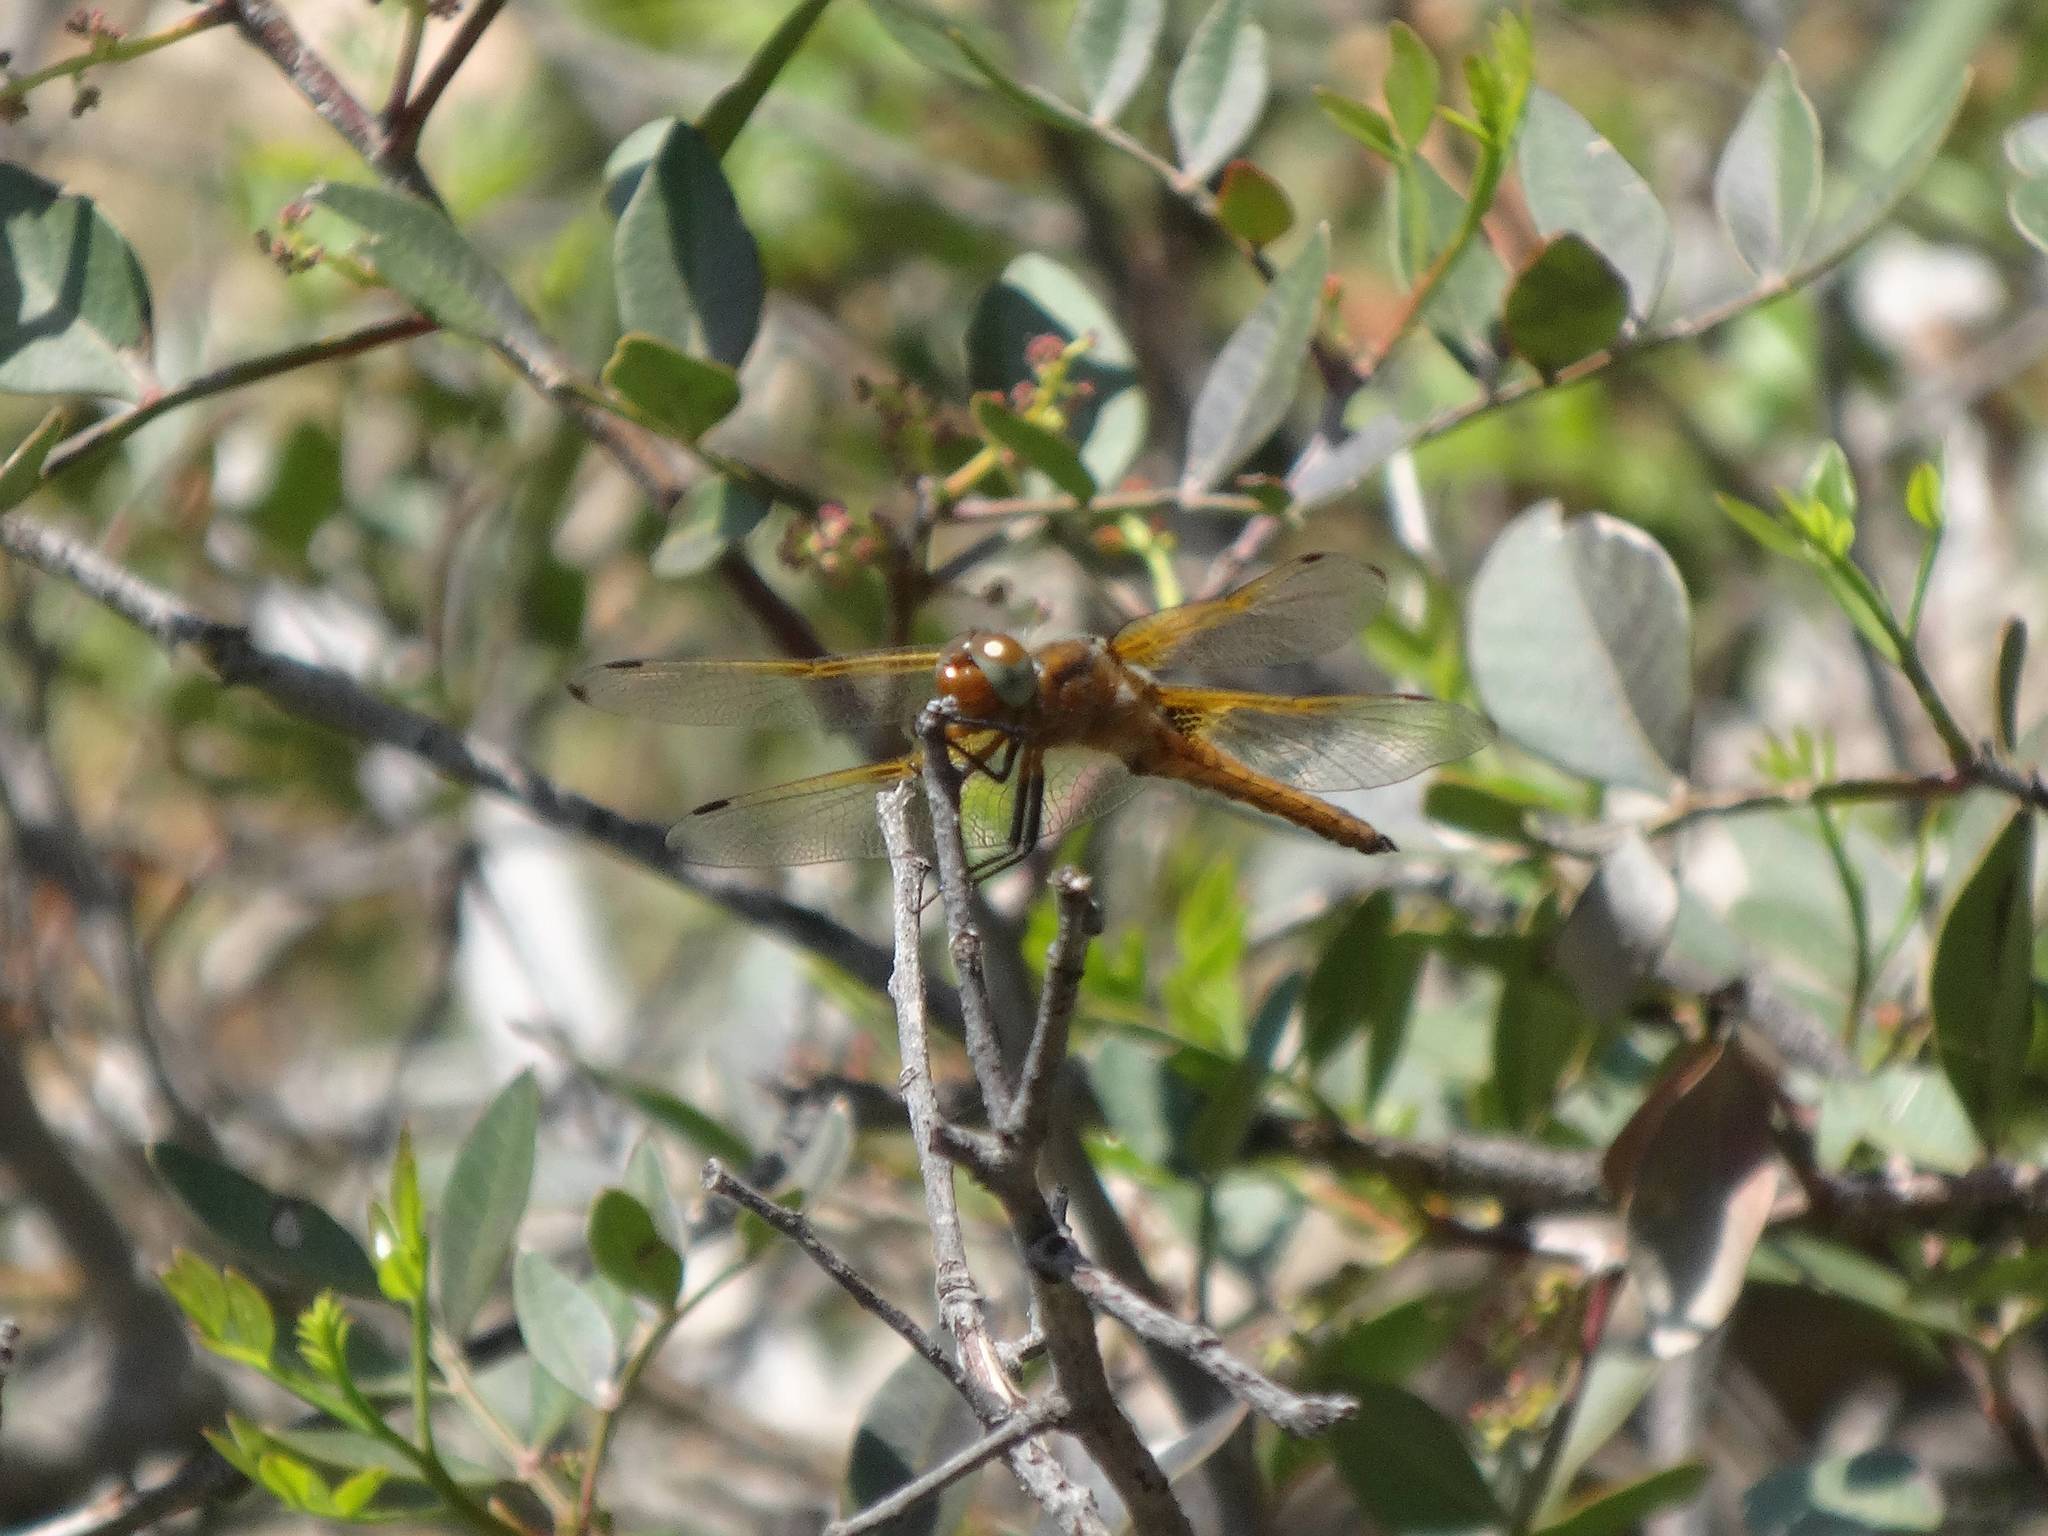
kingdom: Animalia
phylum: Arthropoda
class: Insecta
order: Odonata
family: Libellulidae
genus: Libellula
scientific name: Libellula fulva
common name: Blue chaser
